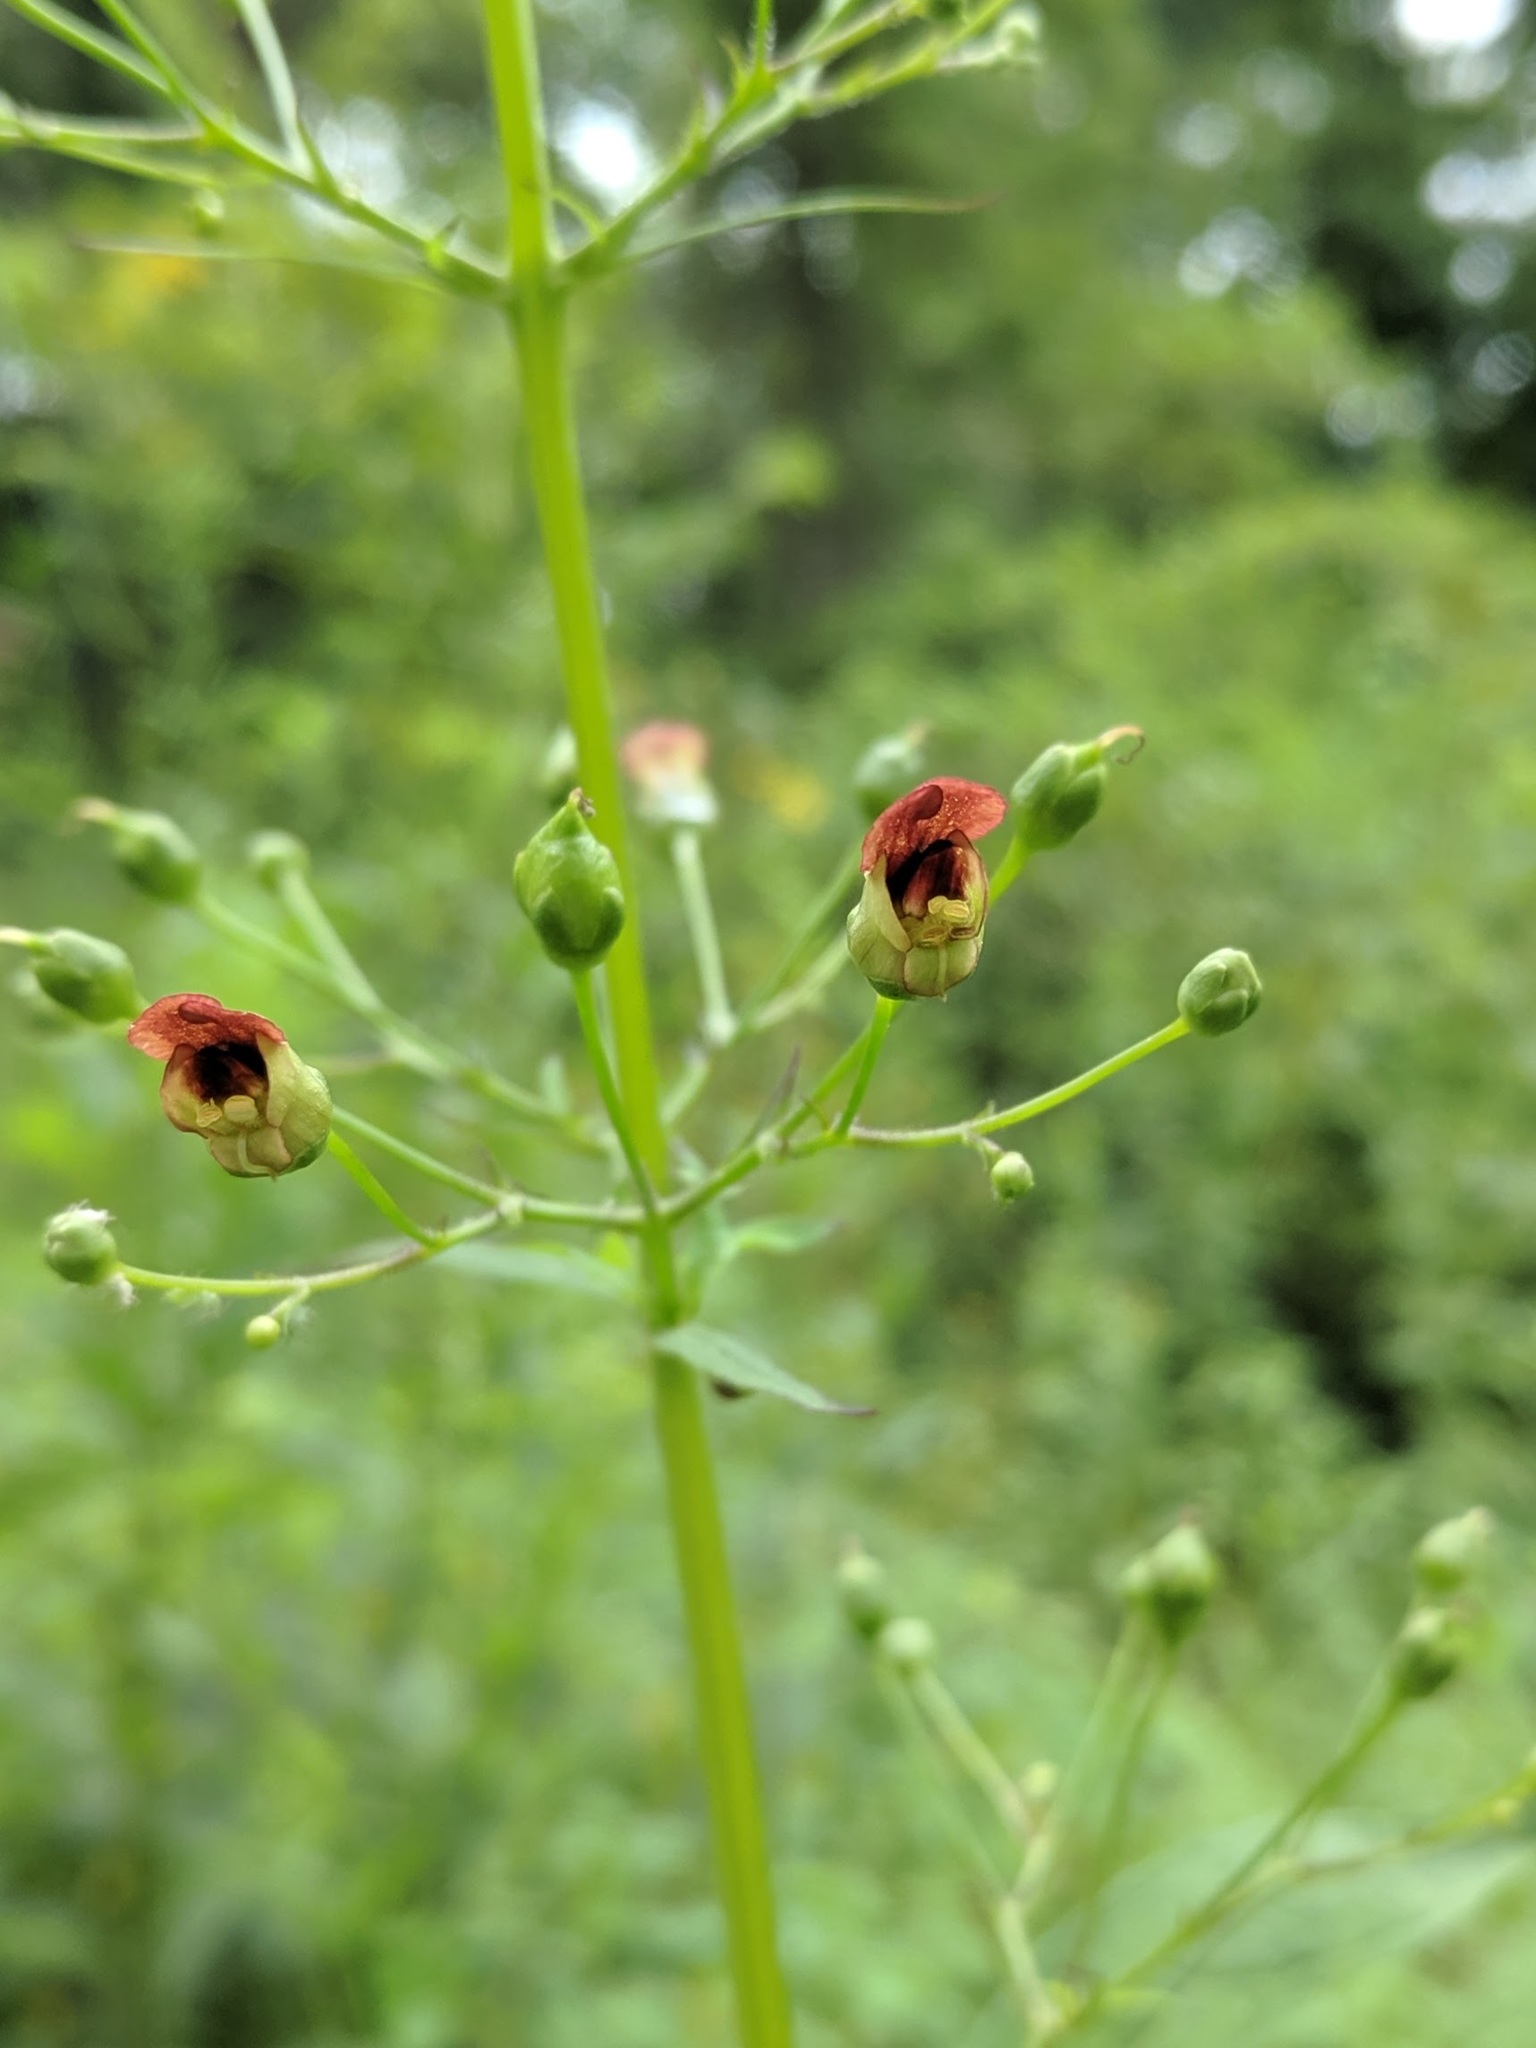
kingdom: Plantae
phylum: Tracheophyta
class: Magnoliopsida
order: Lamiales
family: Scrophulariaceae
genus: Scrophularia
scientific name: Scrophularia marilandica
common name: Eastern figwort
